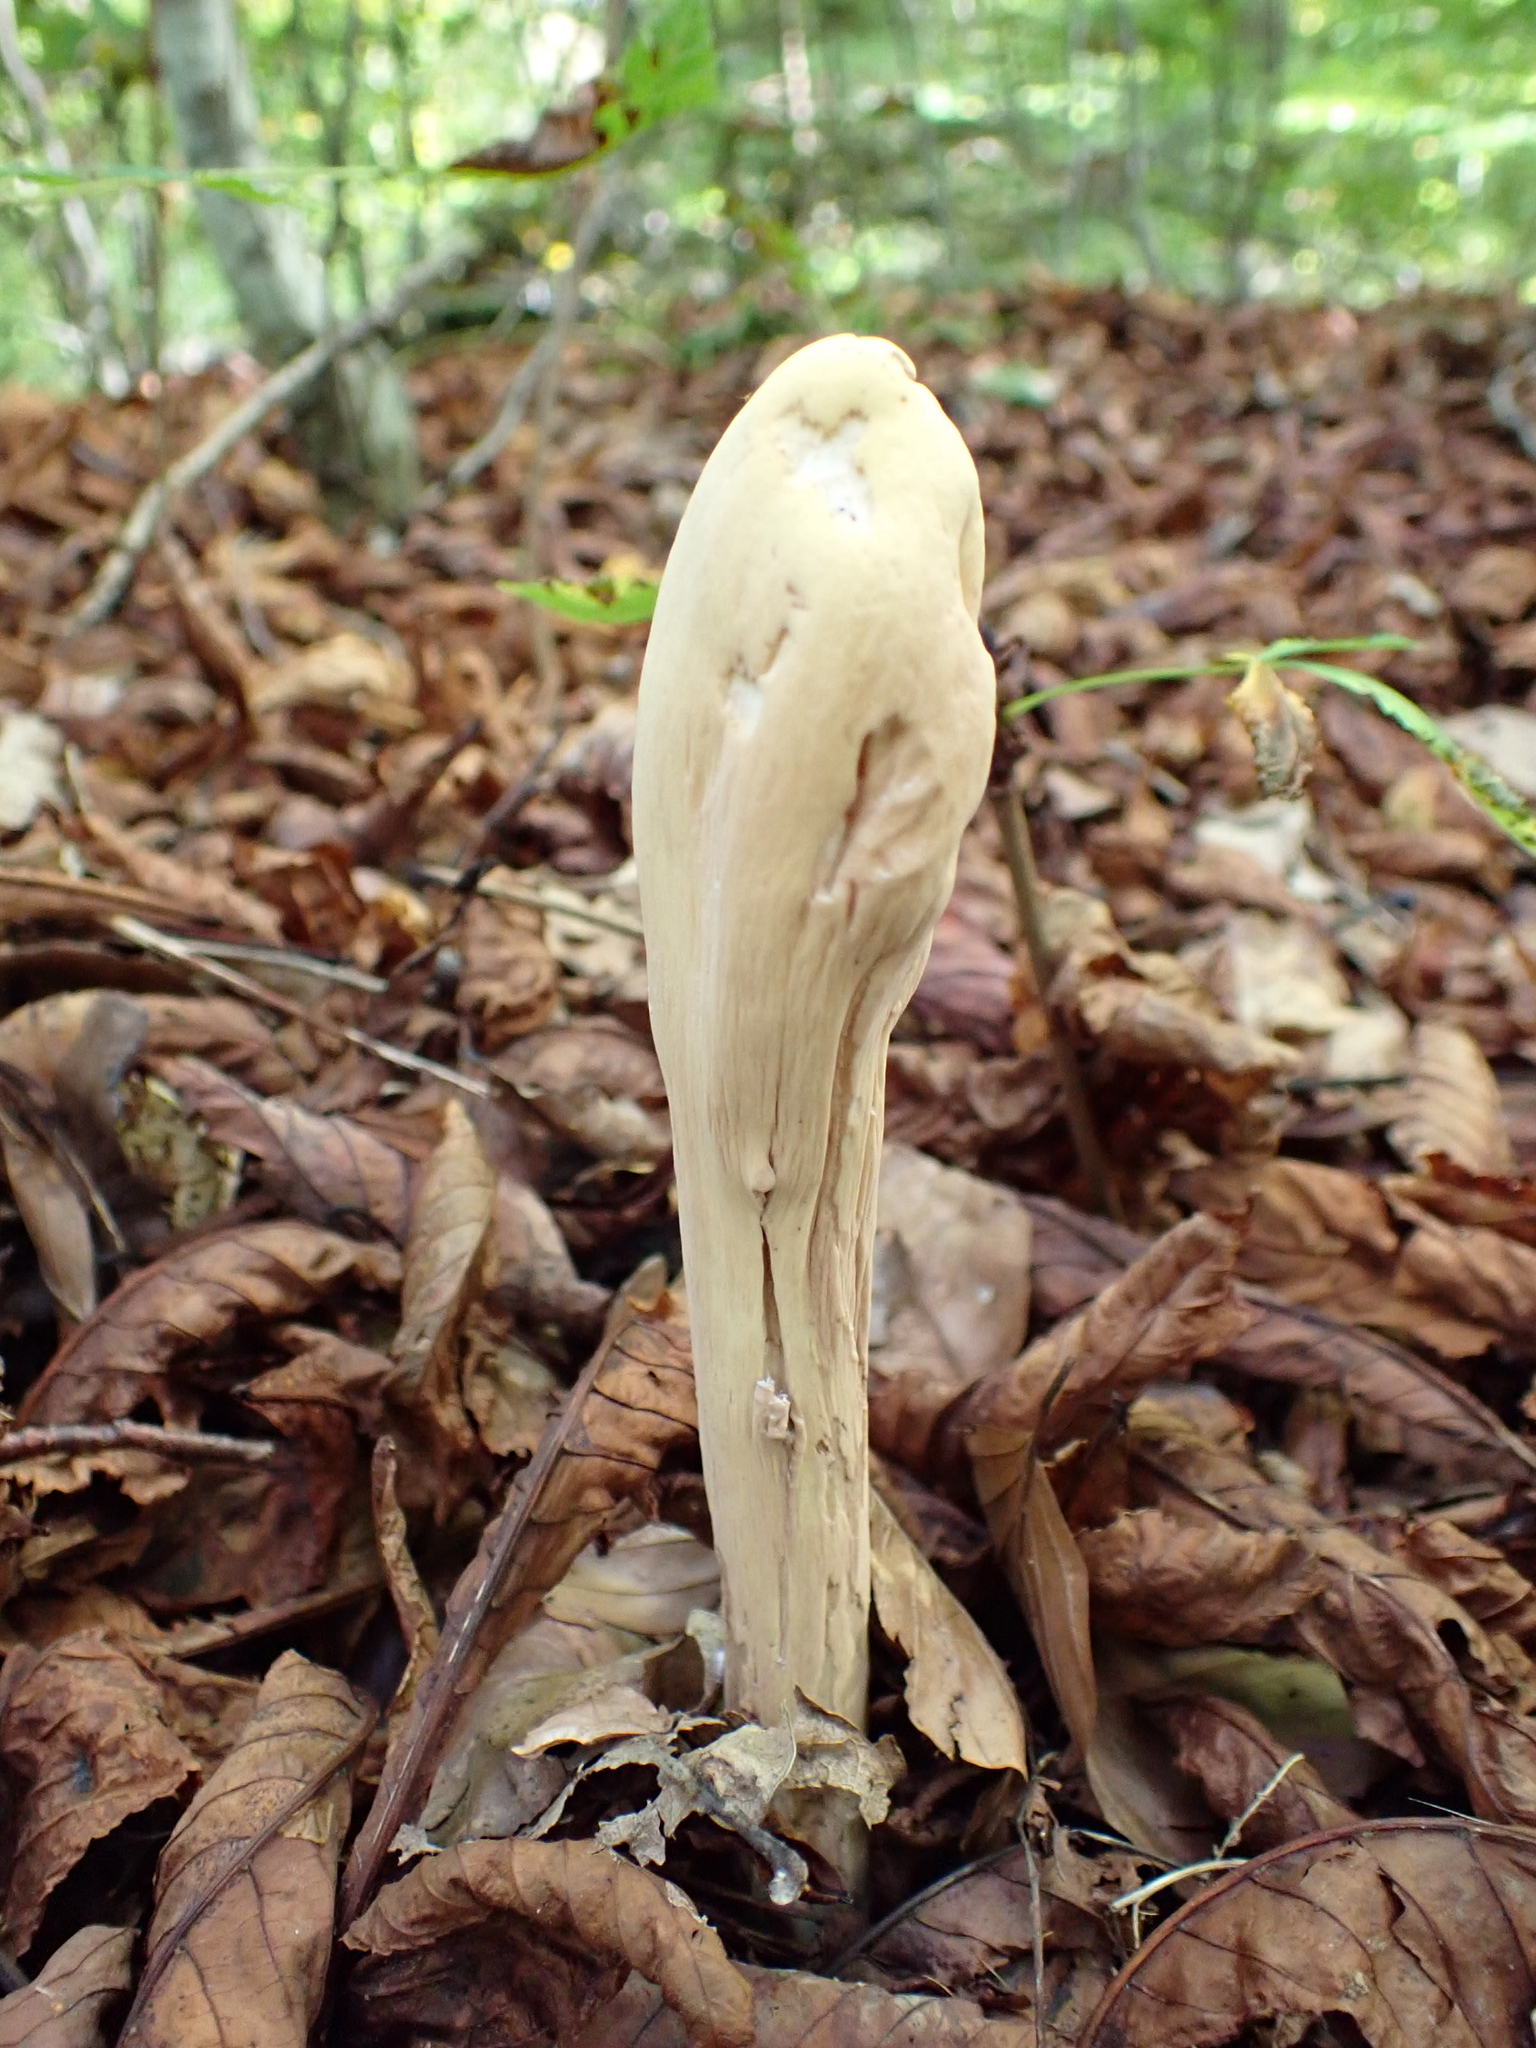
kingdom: Fungi
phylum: Basidiomycota
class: Agaricomycetes
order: Gomphales
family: Clavariadelphaceae
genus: Clavariadelphus
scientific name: Clavariadelphus pistillaris
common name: Giant club
